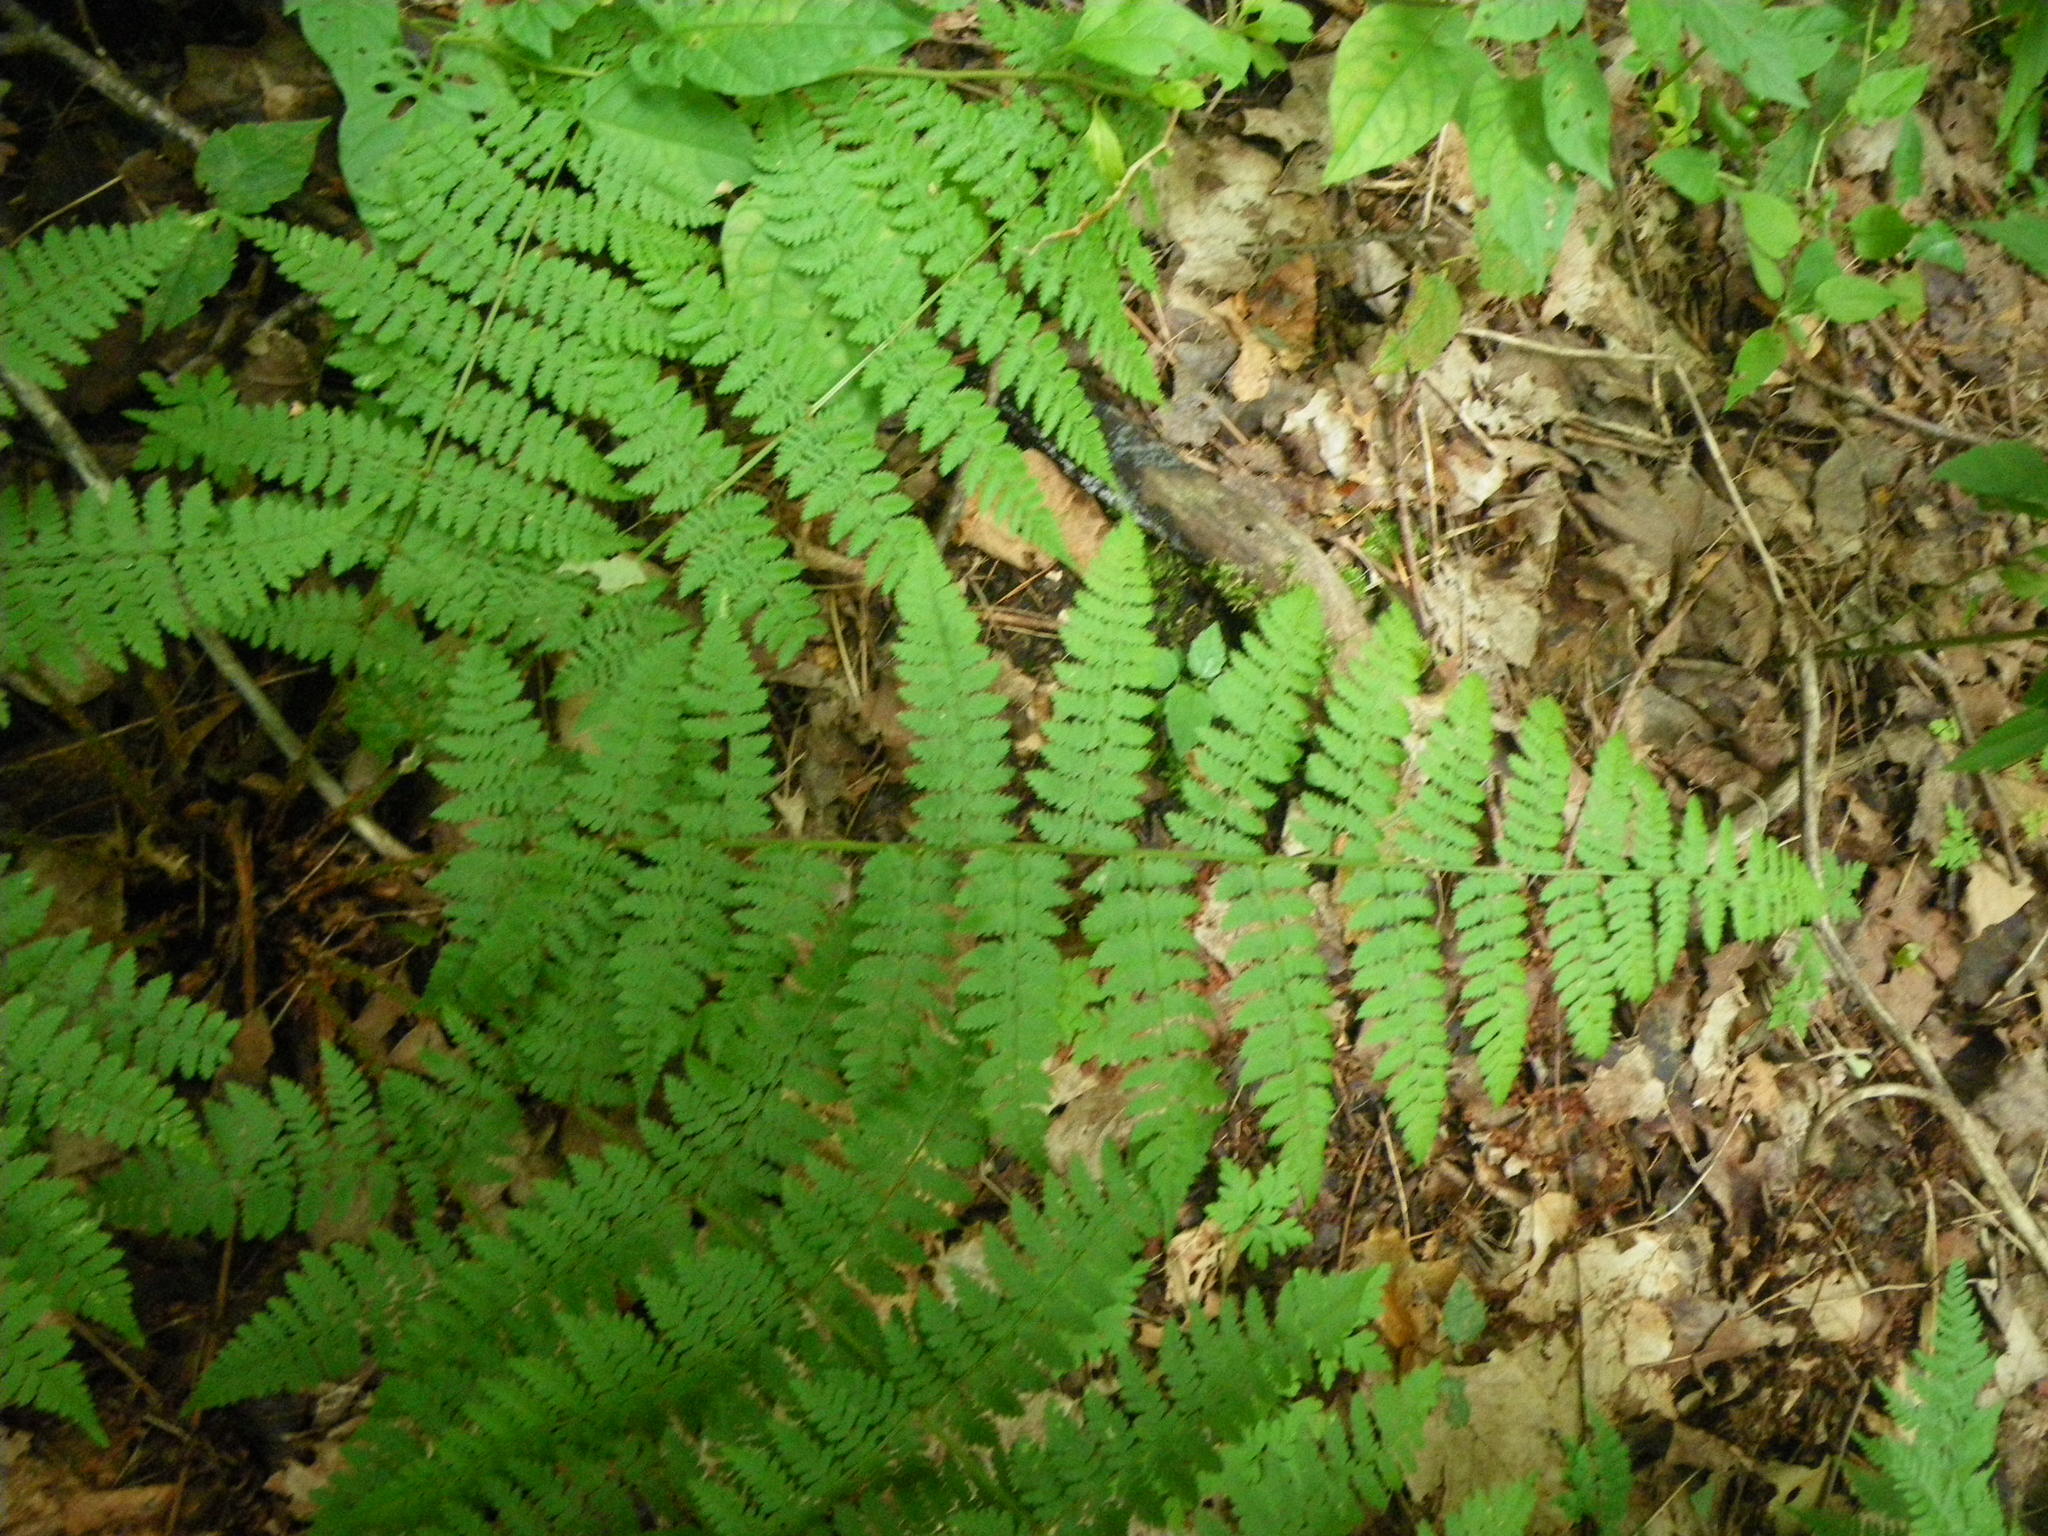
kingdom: Plantae
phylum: Tracheophyta
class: Polypodiopsida
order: Polypodiales
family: Dryopteridaceae
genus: Dryopteris
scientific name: Dryopteris intermedia
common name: Evergreen wood fern
